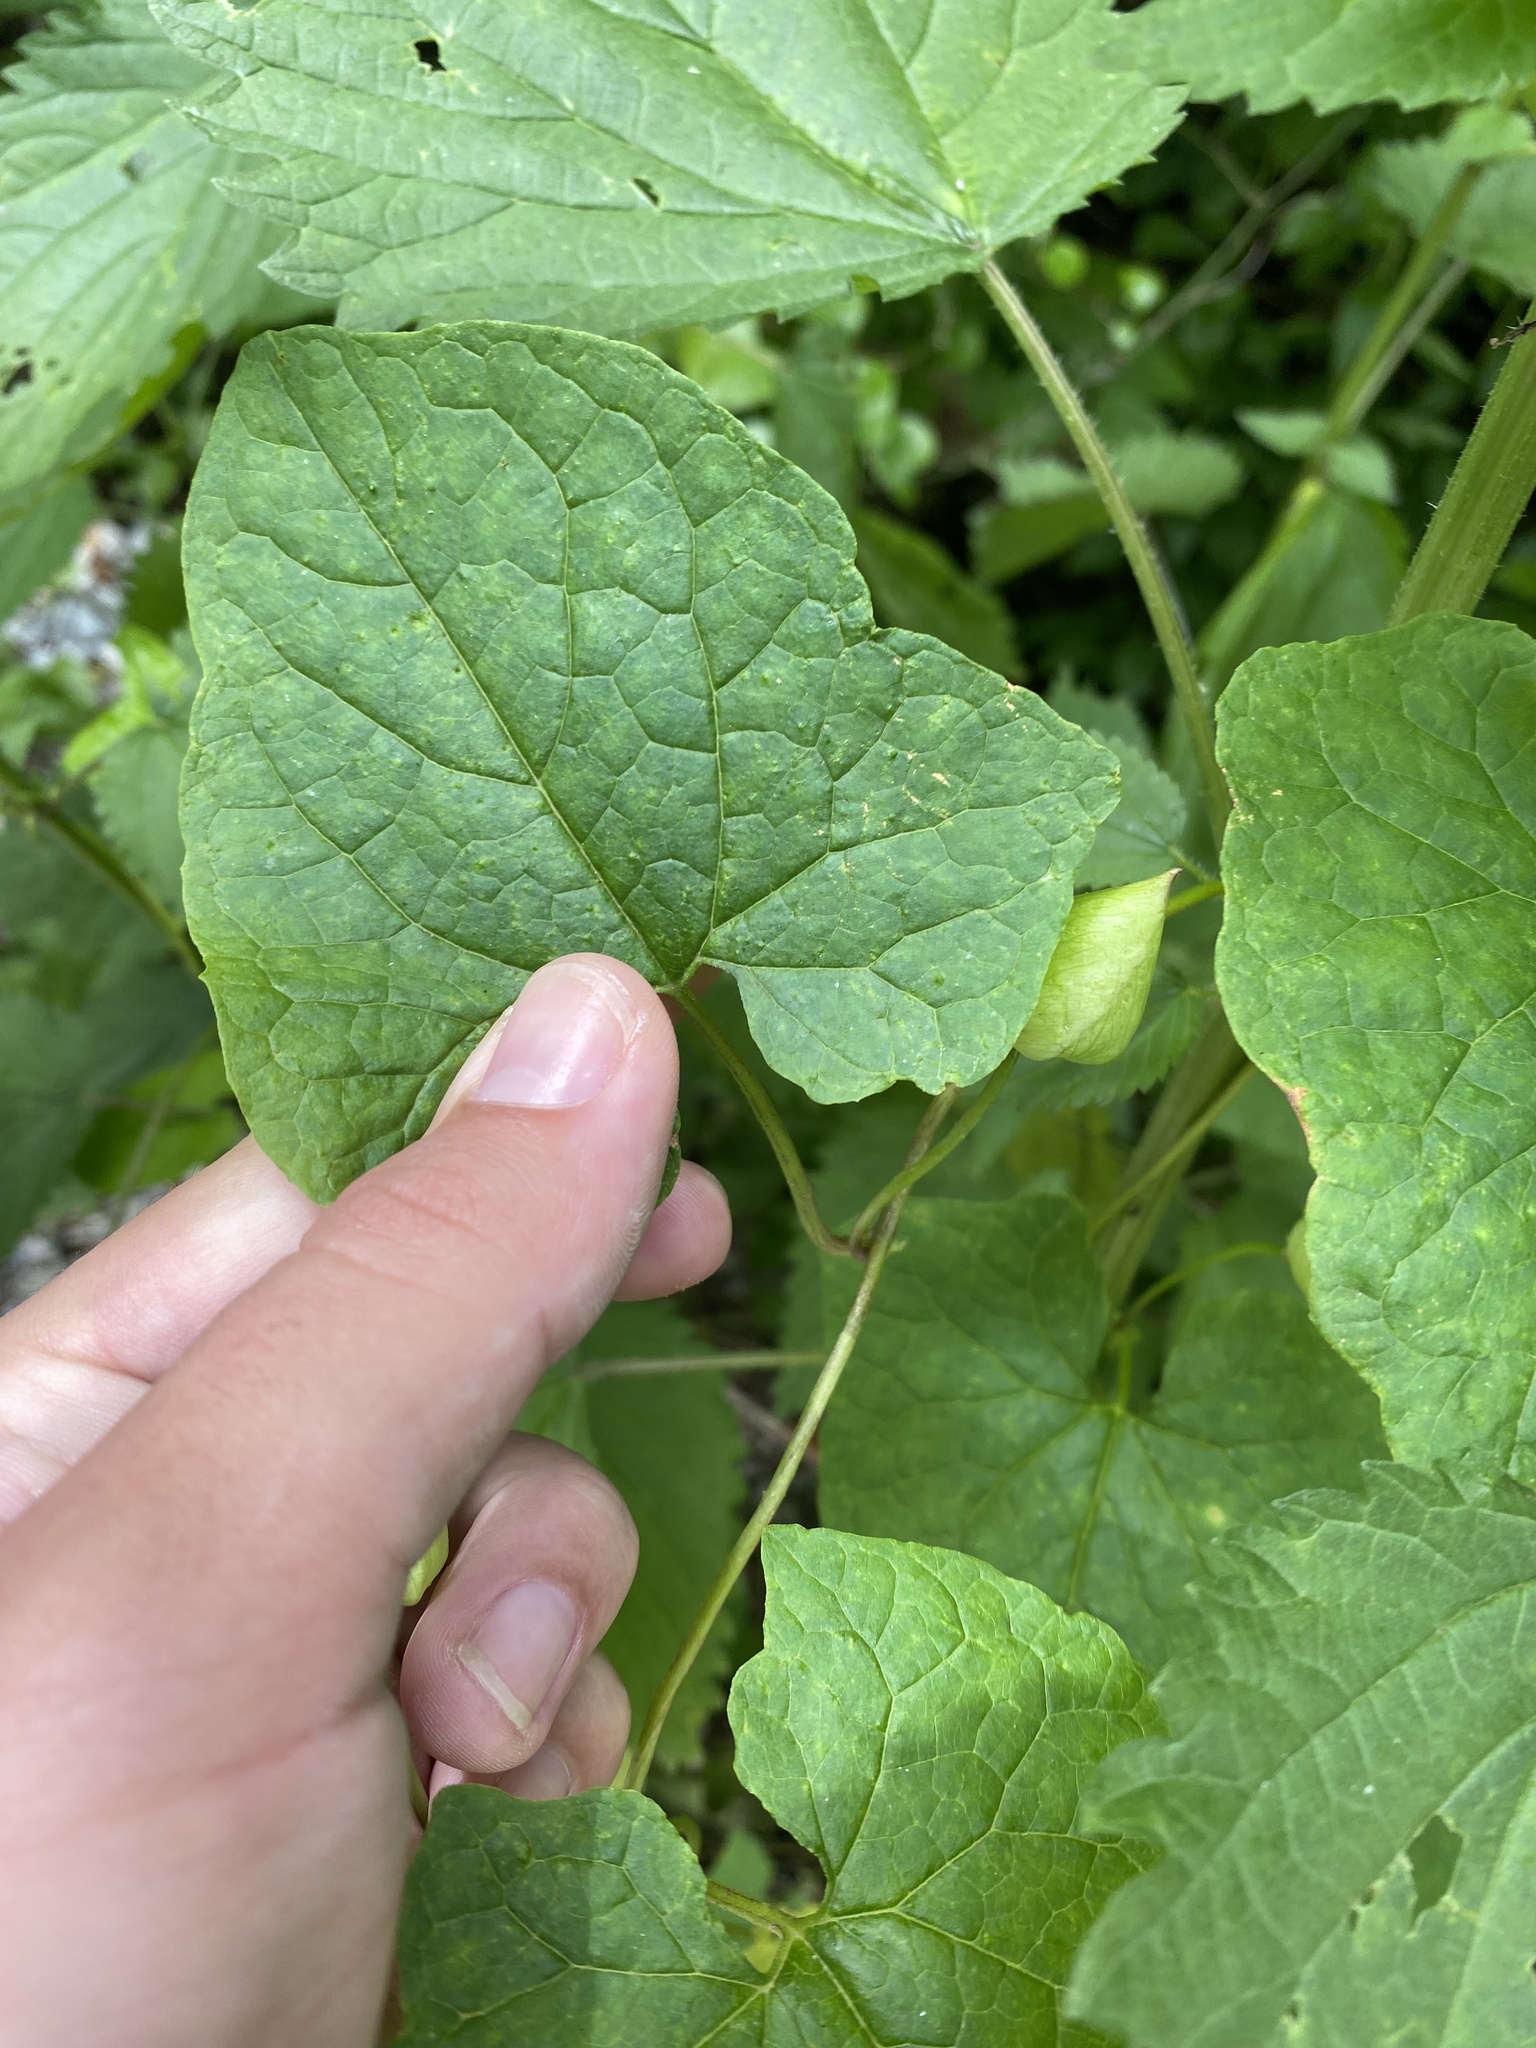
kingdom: Plantae
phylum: Tracheophyta
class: Magnoliopsida
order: Solanales
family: Convolvulaceae
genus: Calystegia
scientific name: Calystegia silvatica
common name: Large bindweed
